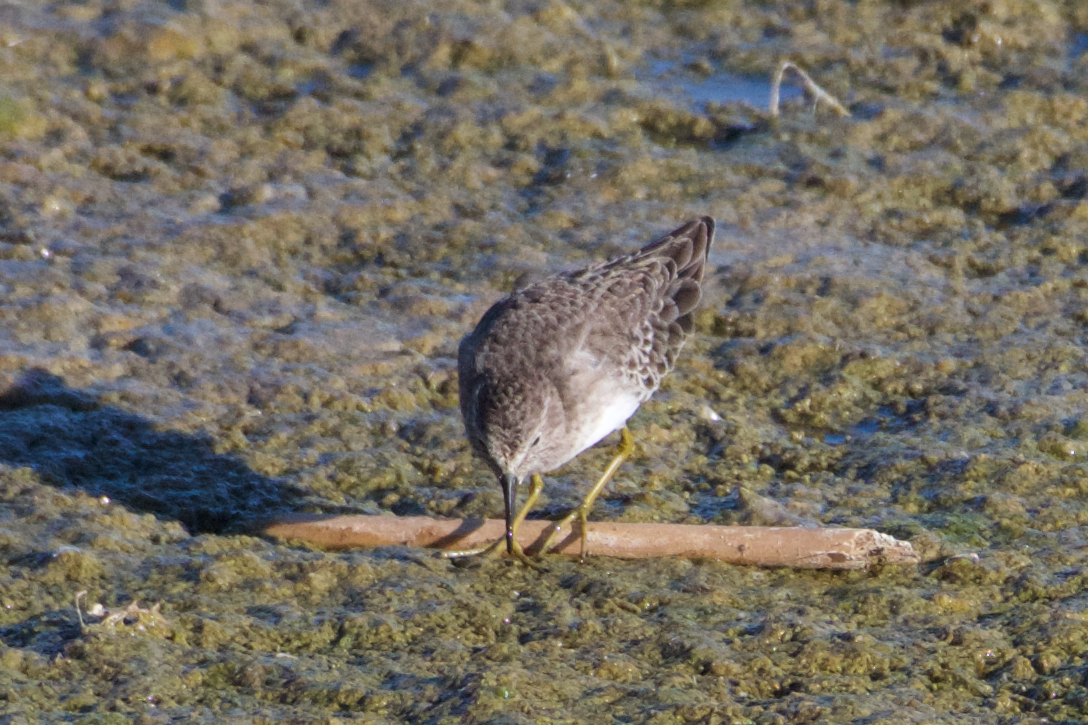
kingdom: Animalia
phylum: Chordata
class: Aves
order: Charadriiformes
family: Scolopacidae
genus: Calidris
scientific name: Calidris minutilla
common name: Least sandpiper
